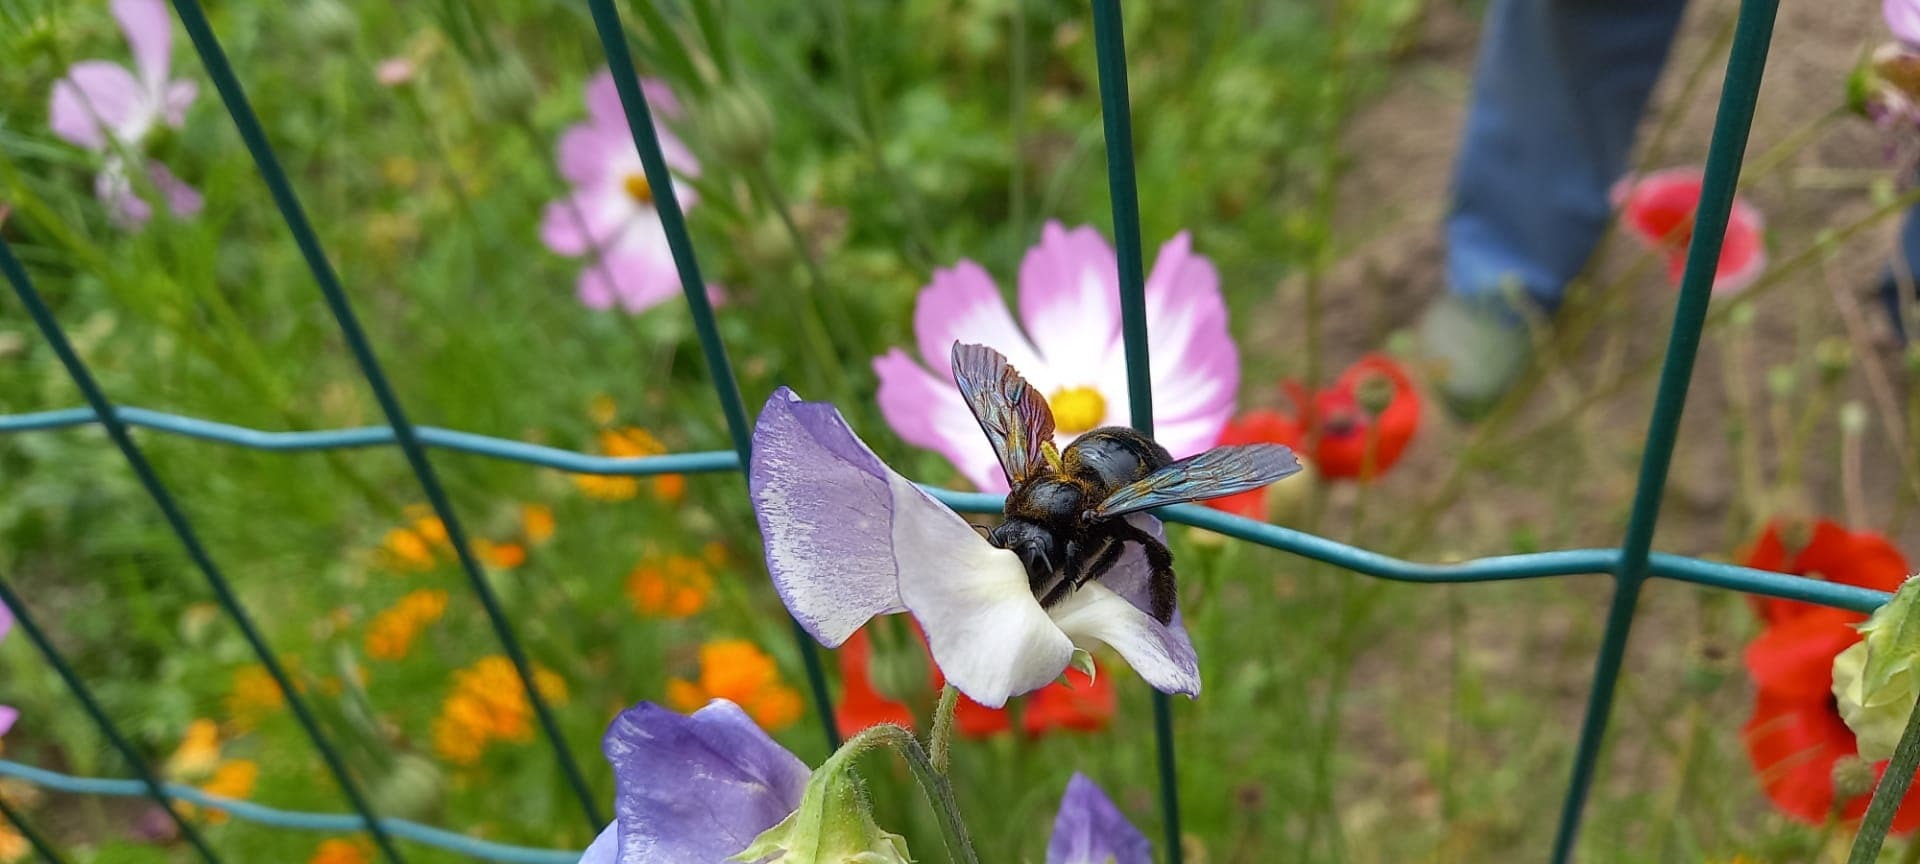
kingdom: Animalia
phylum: Arthropoda
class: Insecta
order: Hymenoptera
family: Apidae
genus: Xylocopa
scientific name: Xylocopa violacea
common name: Violet carpenter bee
